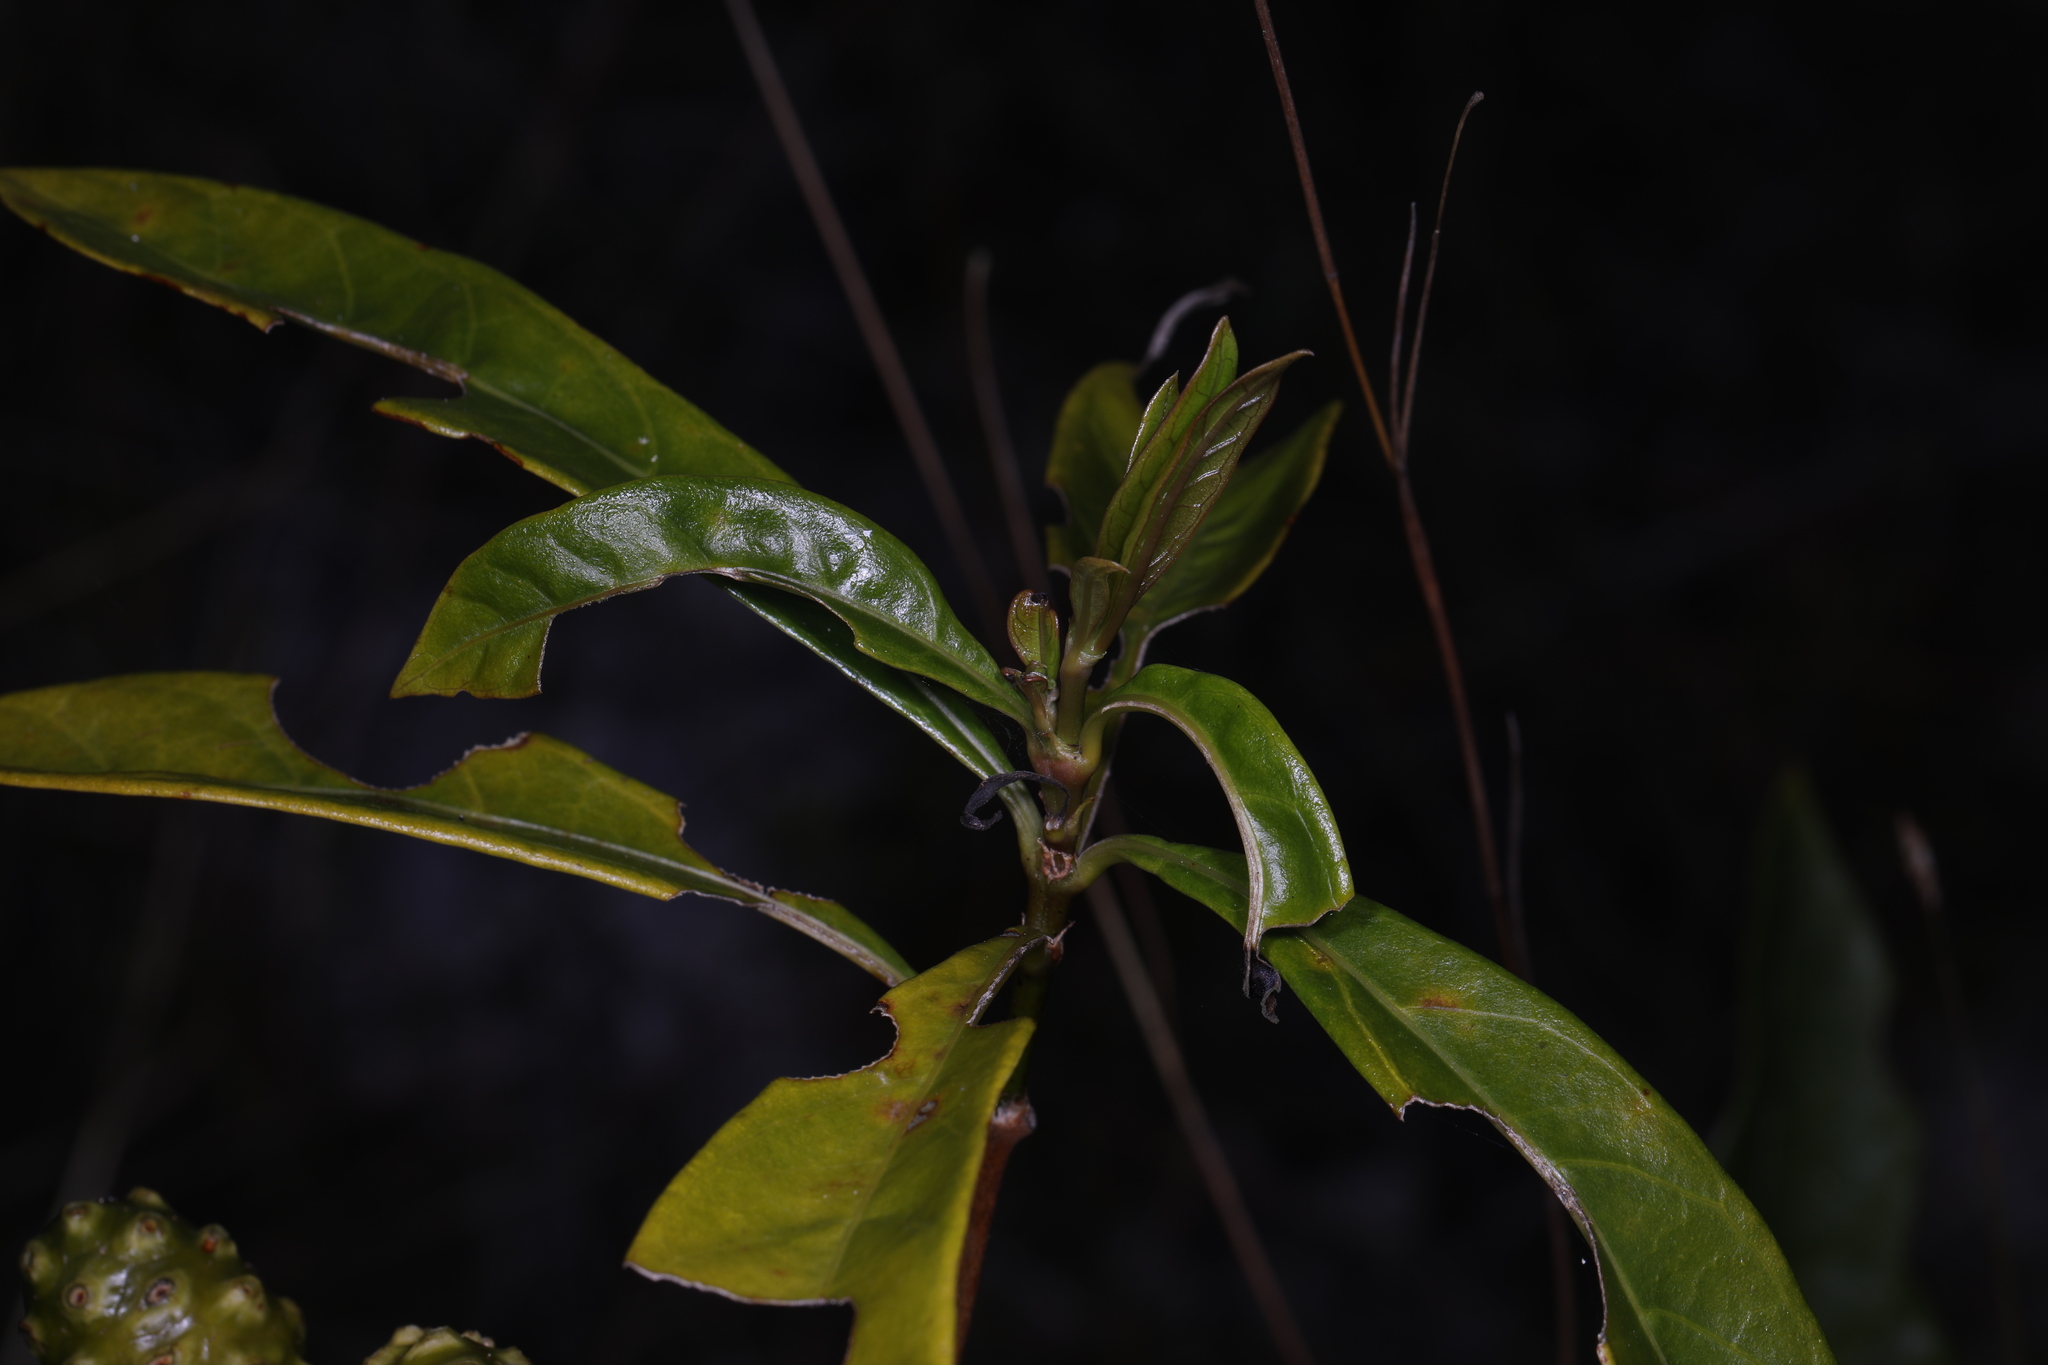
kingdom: Plantae
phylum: Tracheophyta
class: Magnoliopsida
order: Gentianales
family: Rubiaceae
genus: Morinda
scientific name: Morinda royoc
